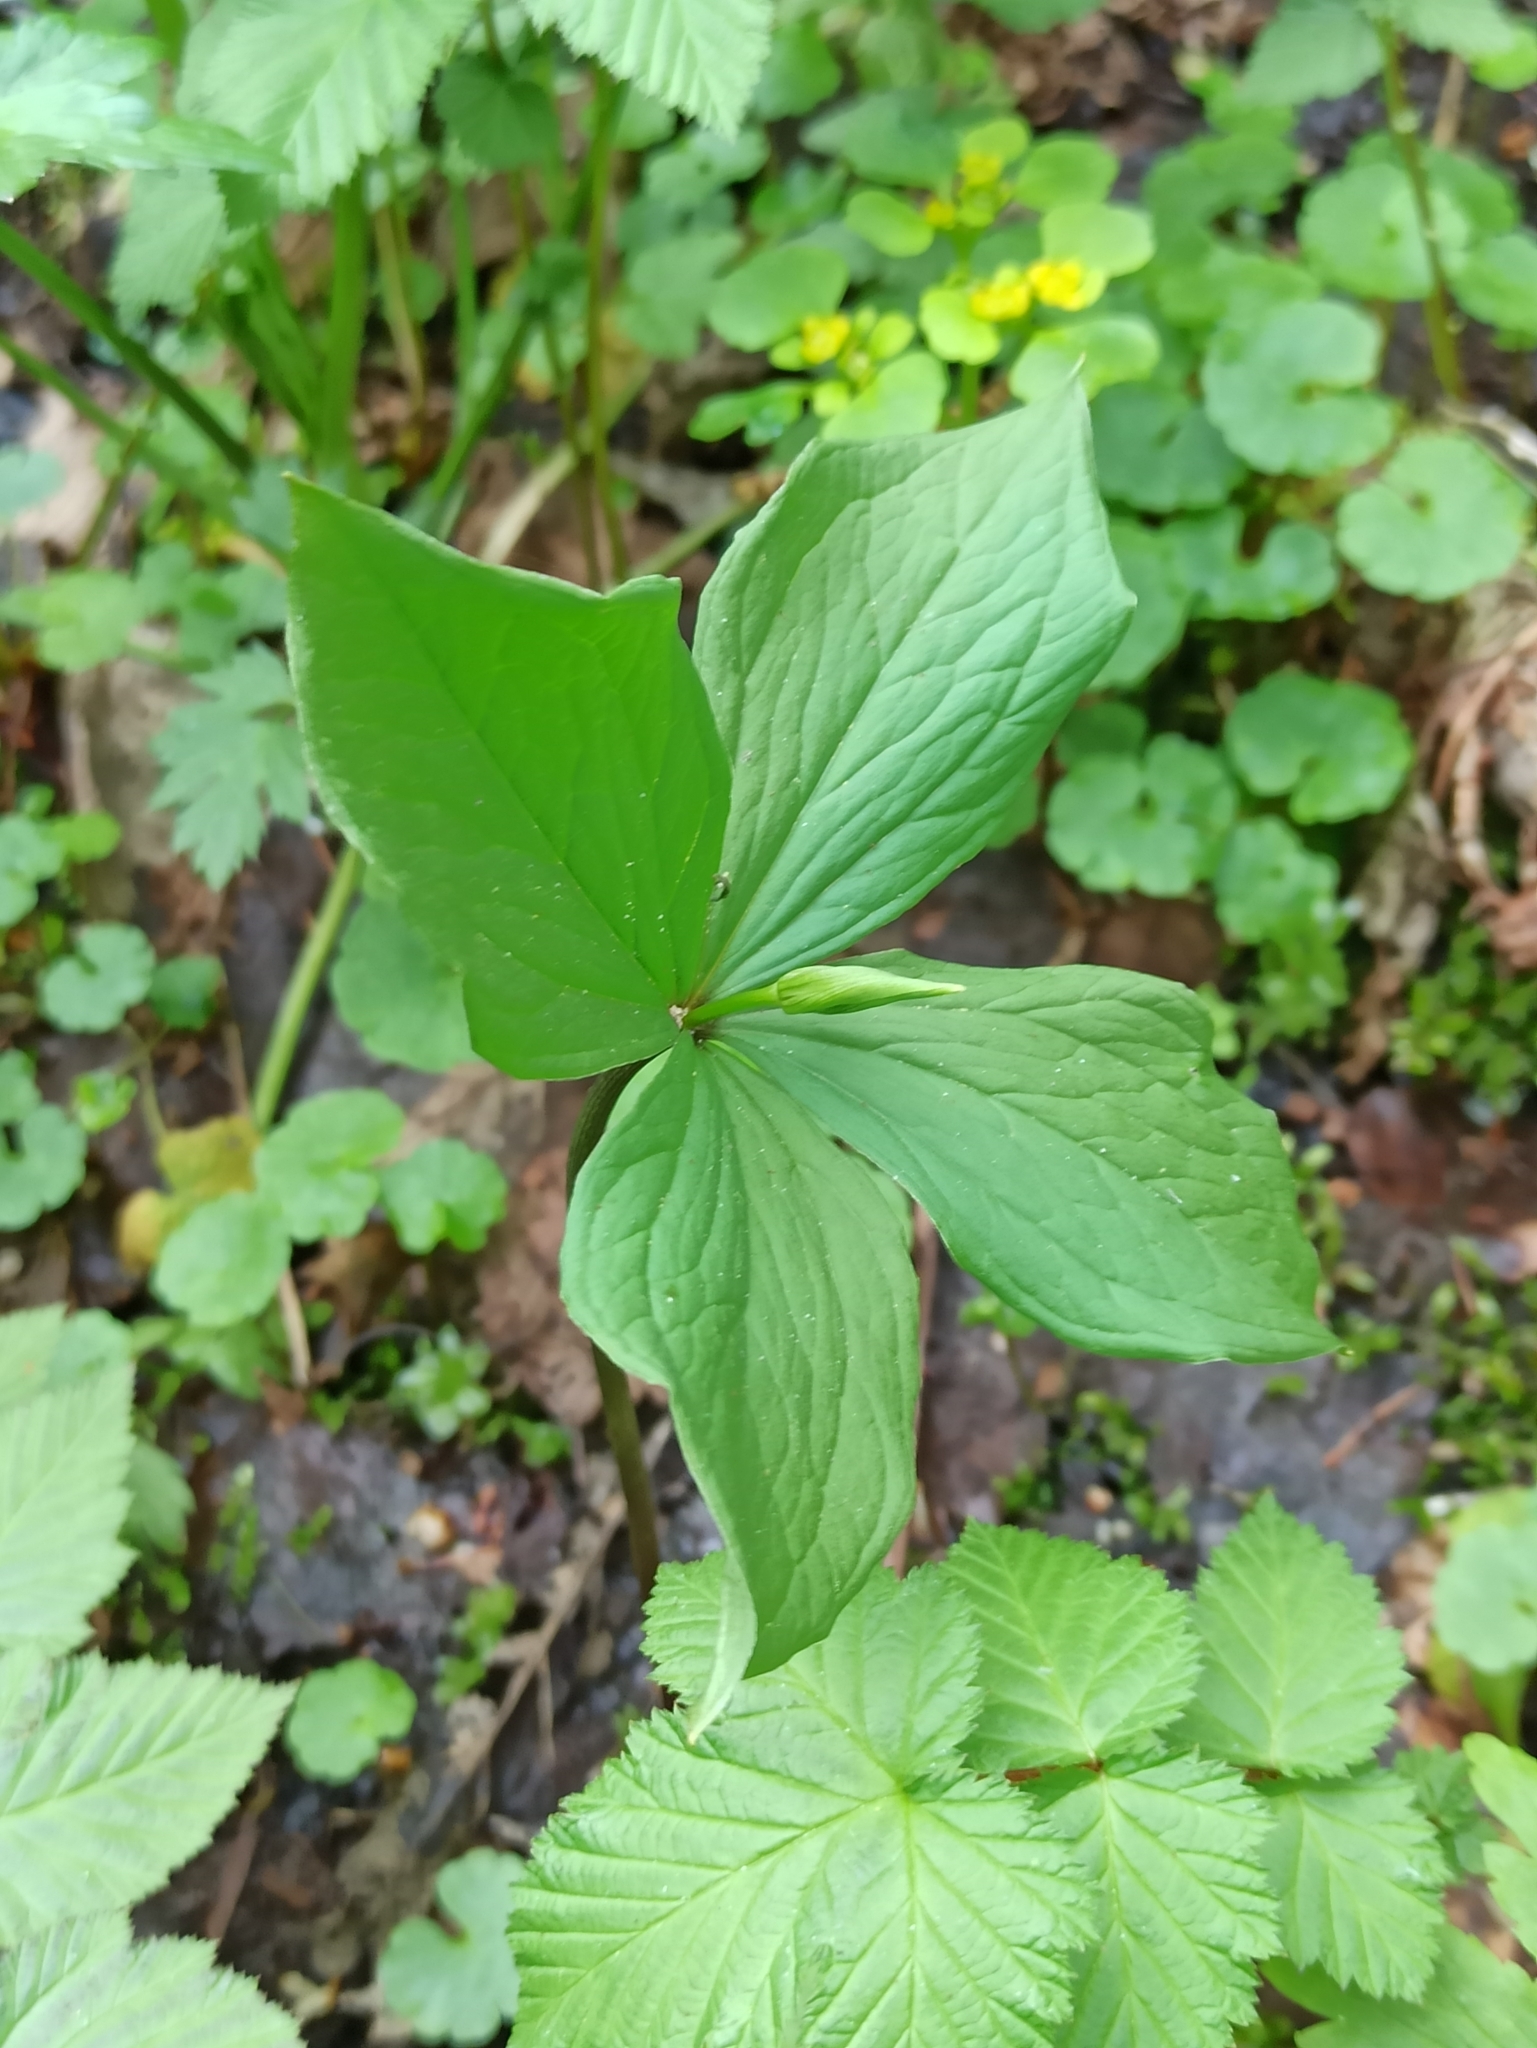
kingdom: Plantae
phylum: Tracheophyta
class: Liliopsida
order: Liliales
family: Melanthiaceae
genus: Paris
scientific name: Paris quadrifolia
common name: Herb-paris
